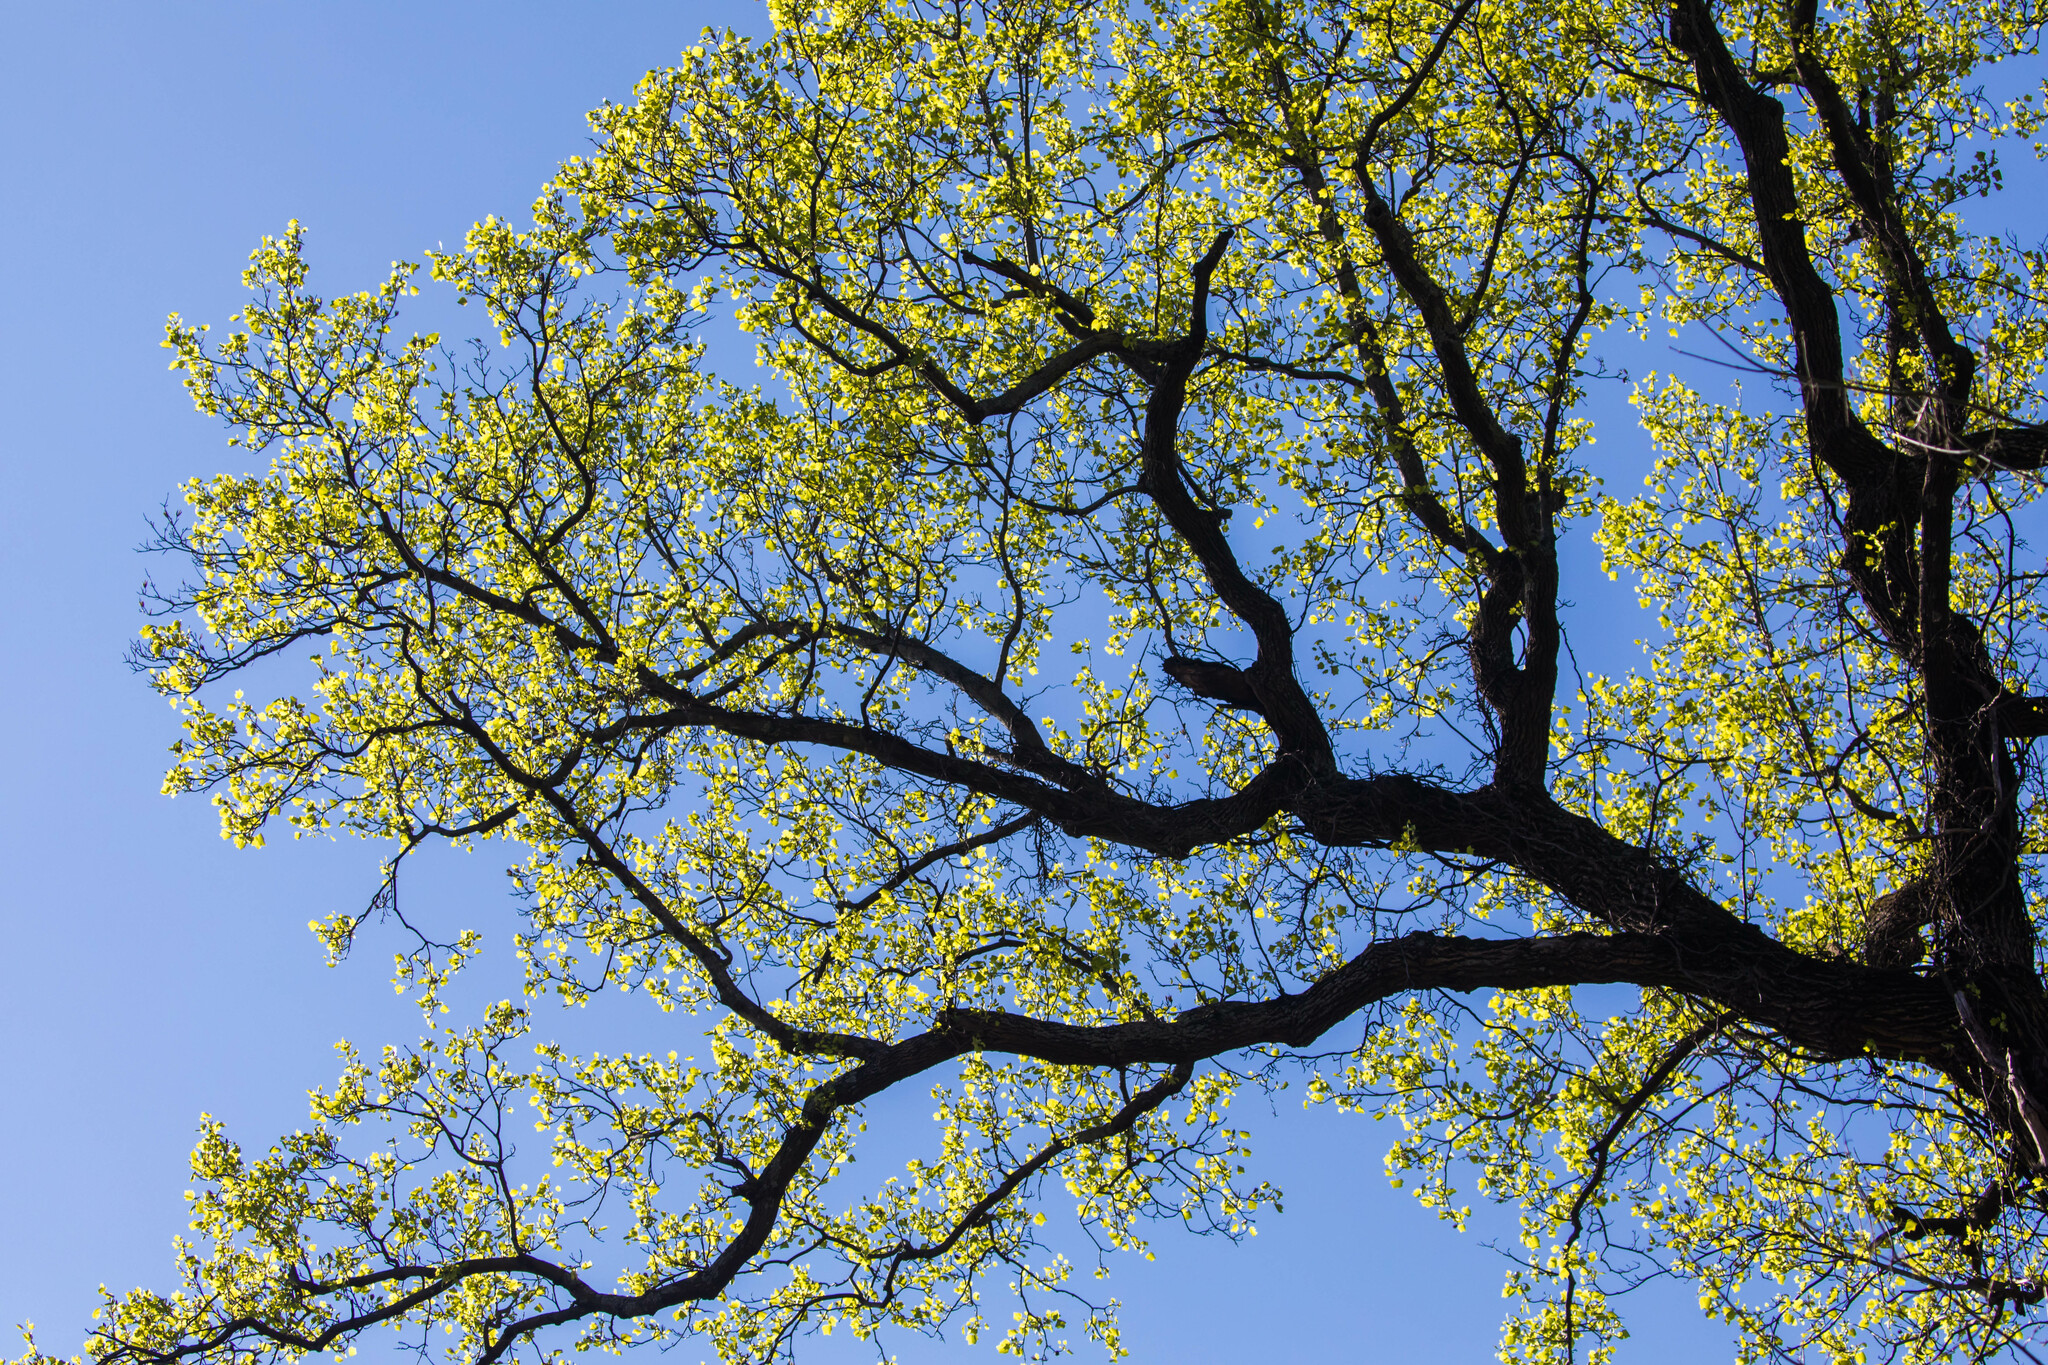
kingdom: Plantae
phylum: Tracheophyta
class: Magnoliopsida
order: Magnoliales
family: Magnoliaceae
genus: Liriodendron
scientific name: Liriodendron tulipifera
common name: Tulip tree
